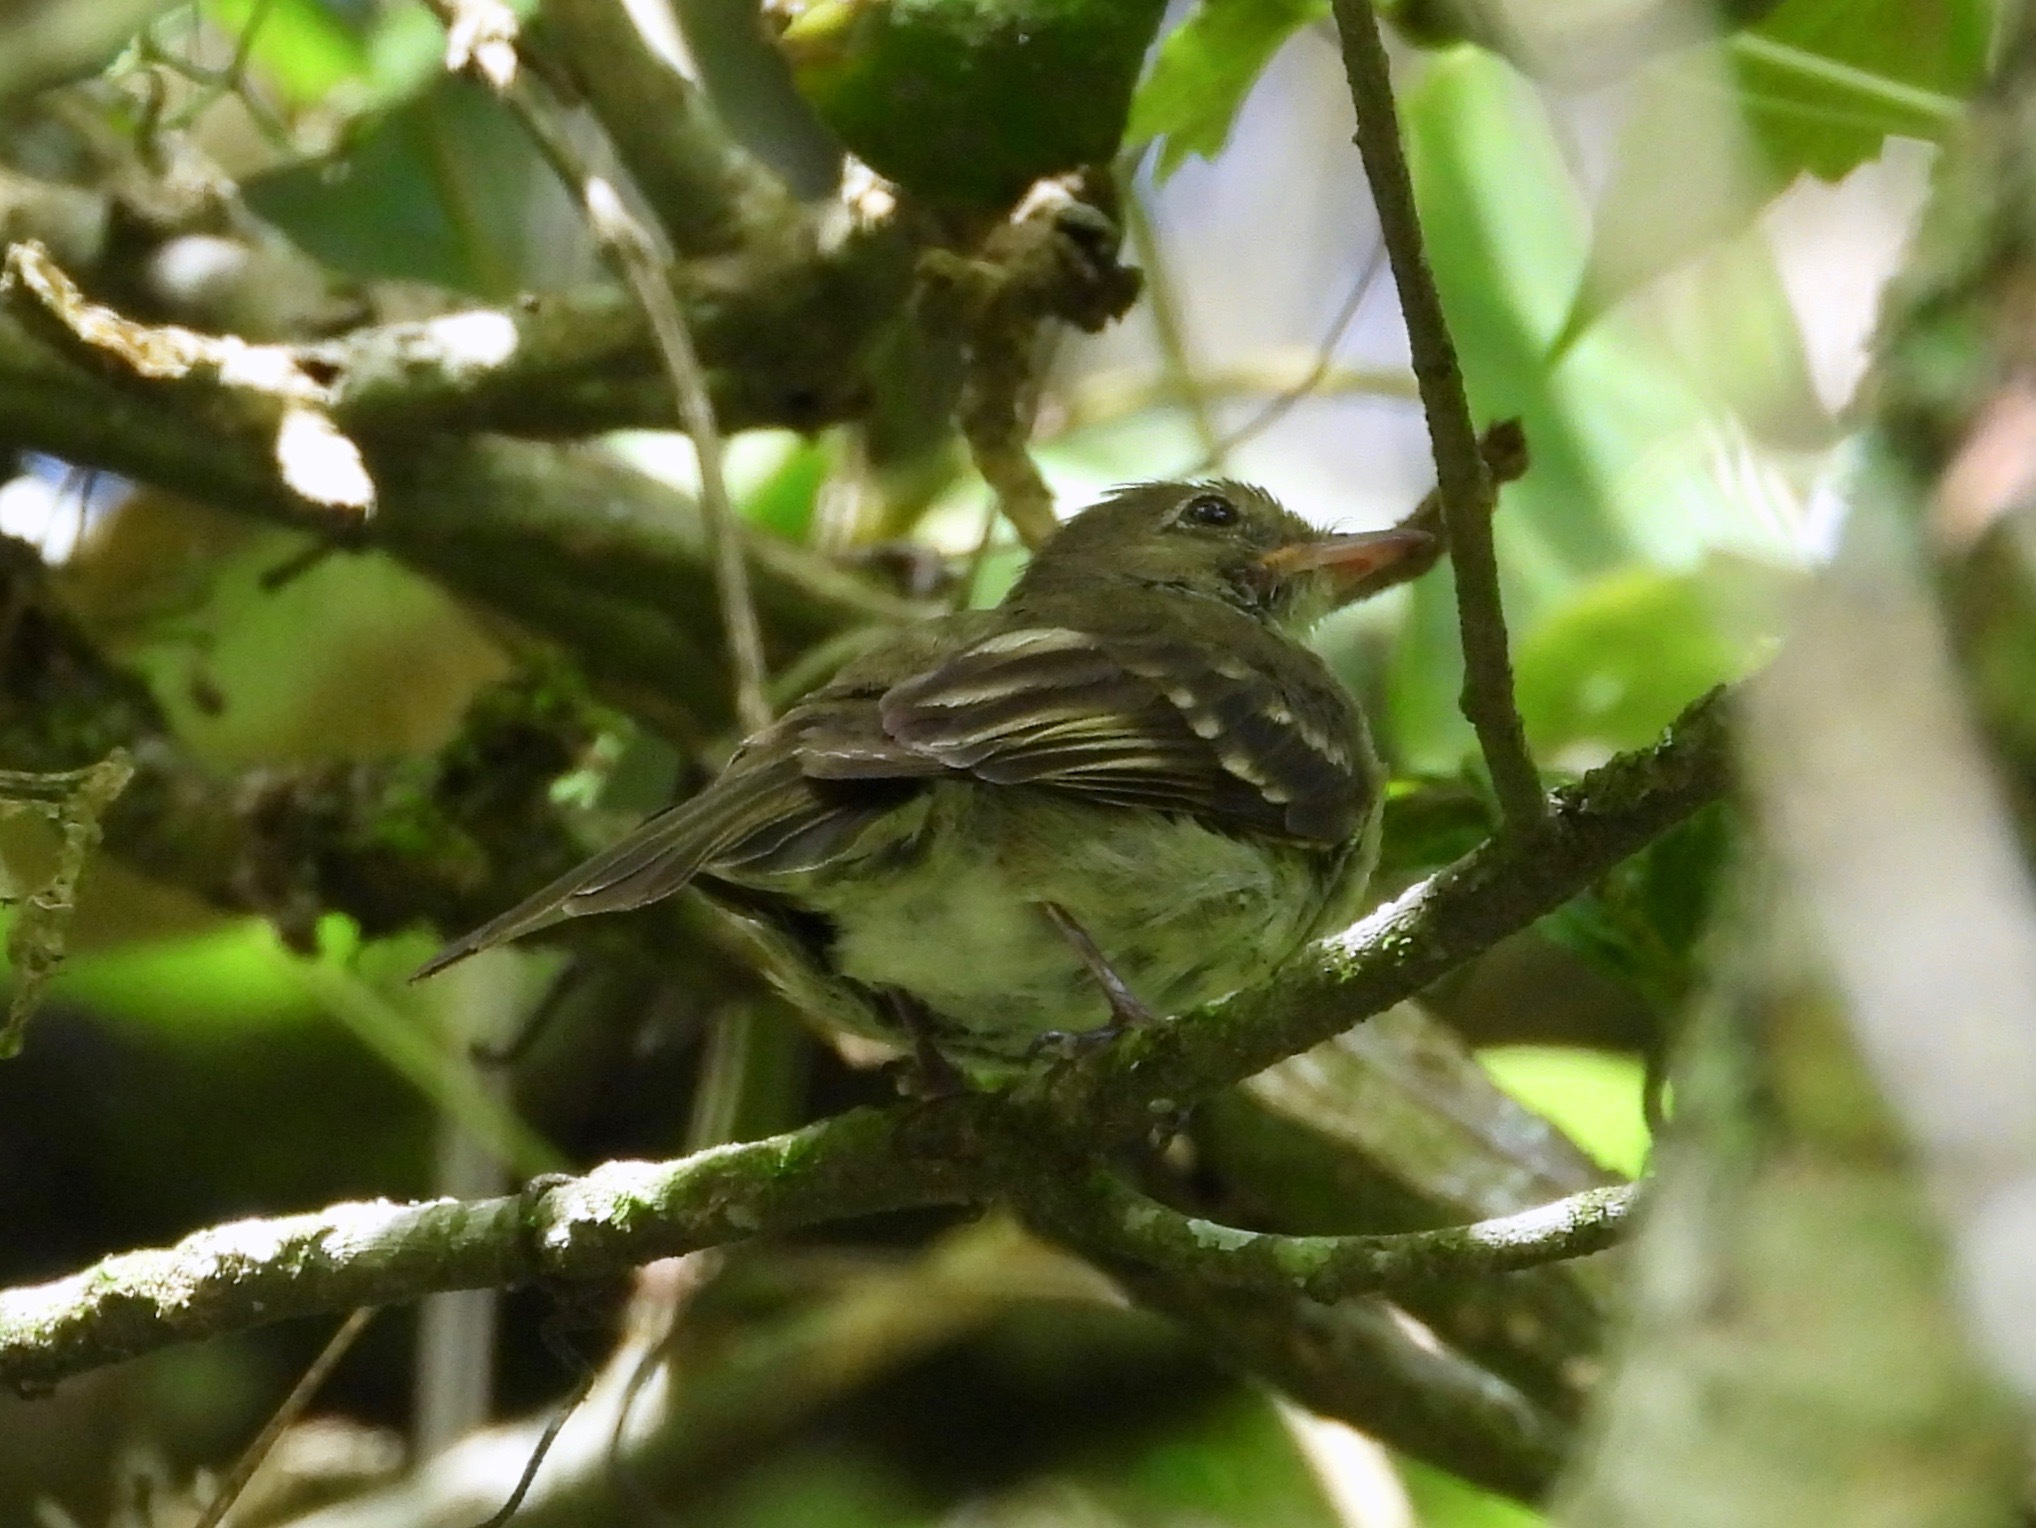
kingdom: Animalia
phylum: Chordata
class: Aves
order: Passeriformes
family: Tyrannidae
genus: Elaenia
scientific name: Elaenia frantzii
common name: Mountain elaenia
